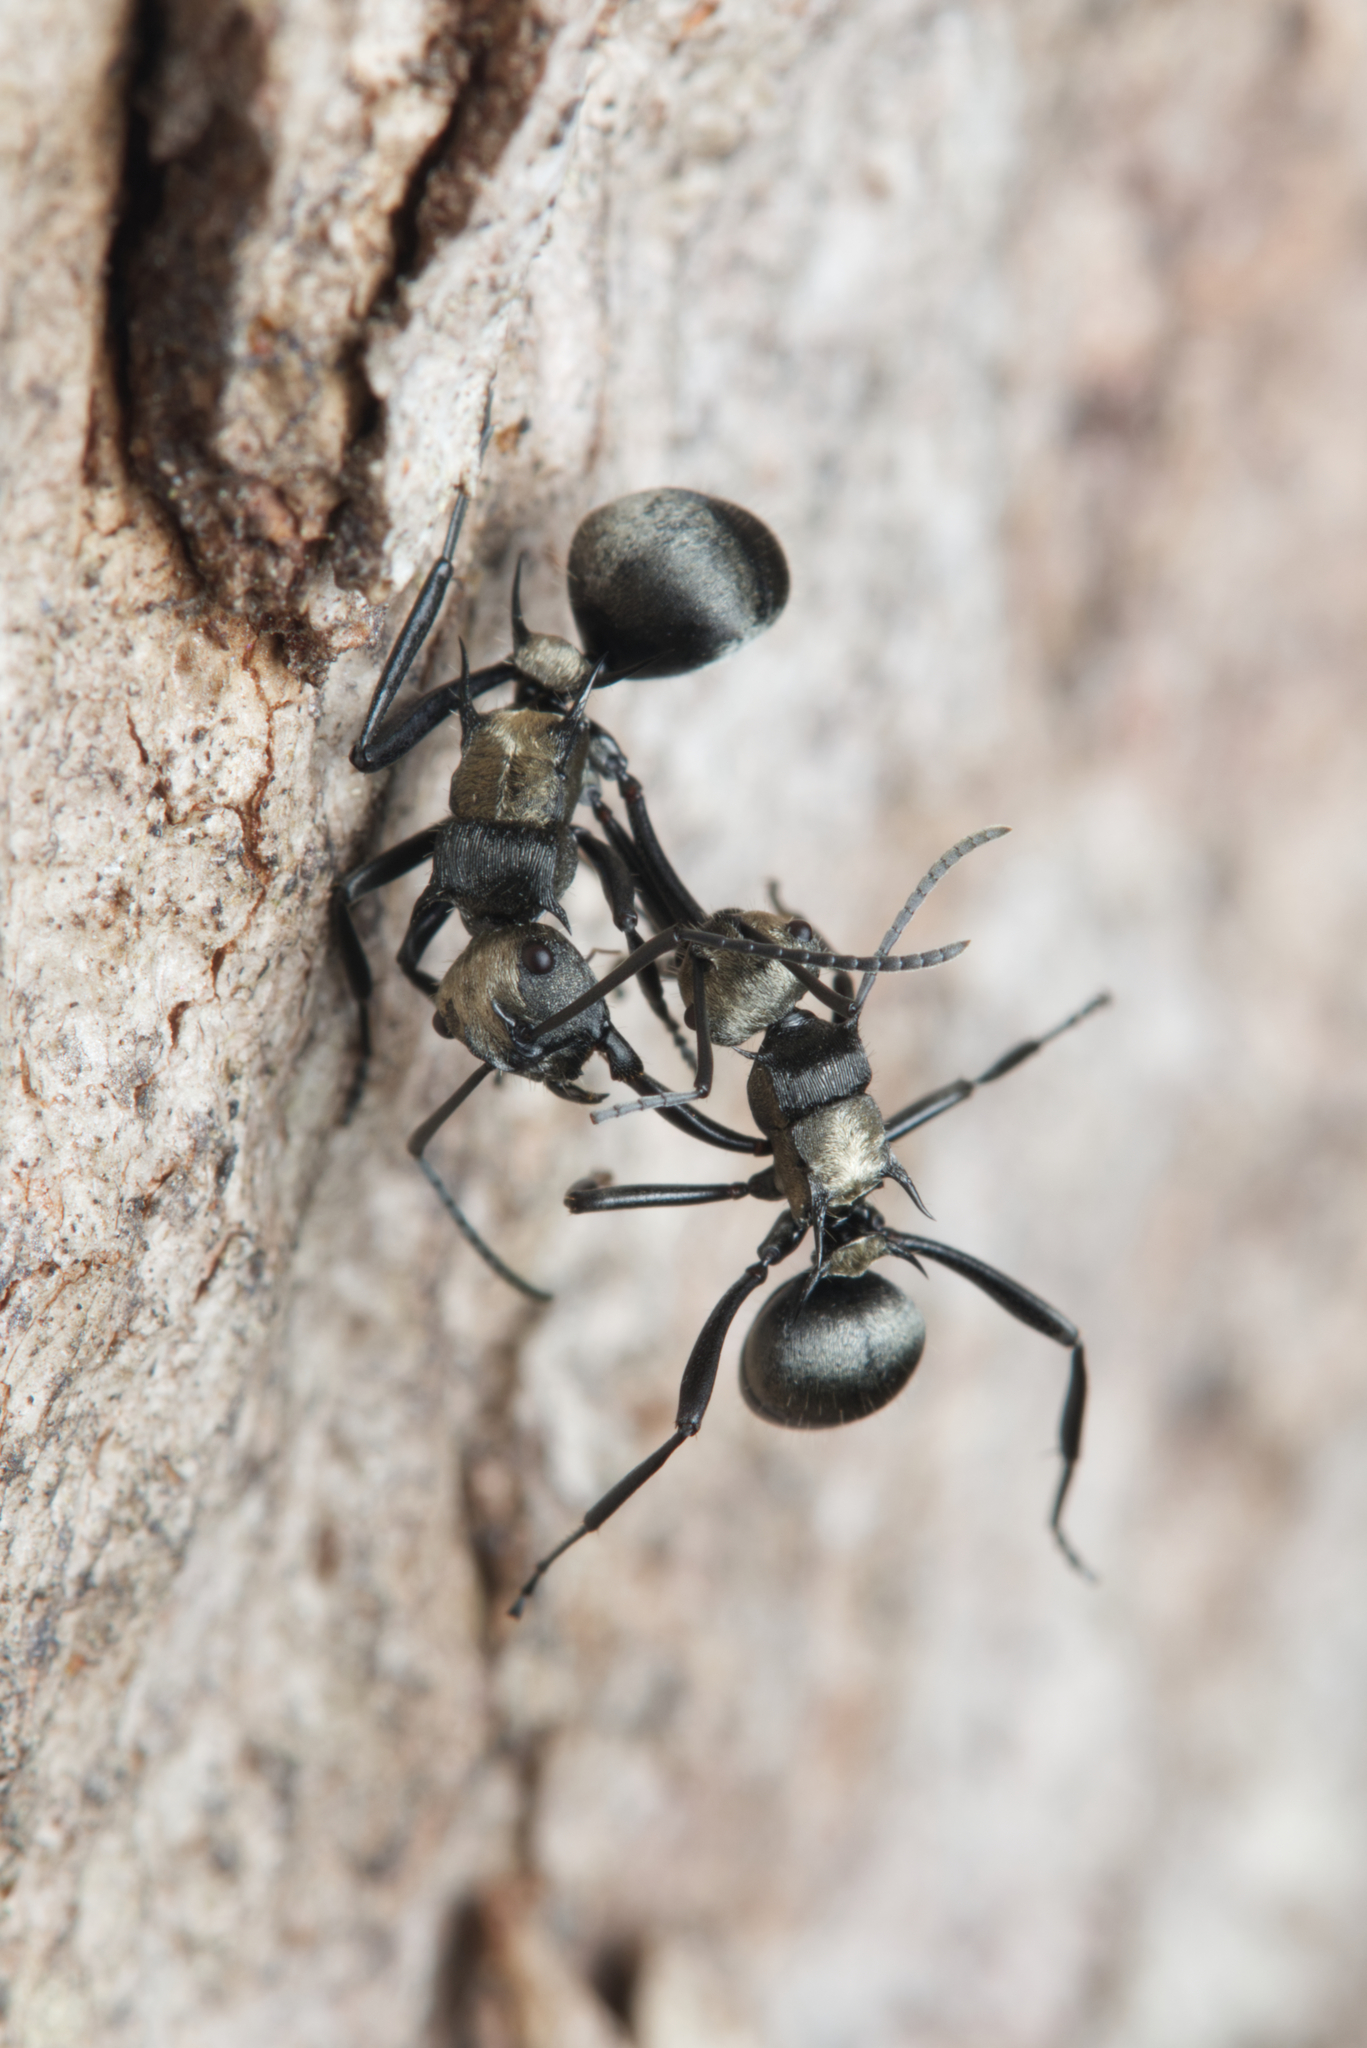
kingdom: Animalia
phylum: Arthropoda
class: Insecta
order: Hymenoptera
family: Formicidae
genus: Polyrhachis
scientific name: Polyrhachis daemeli
